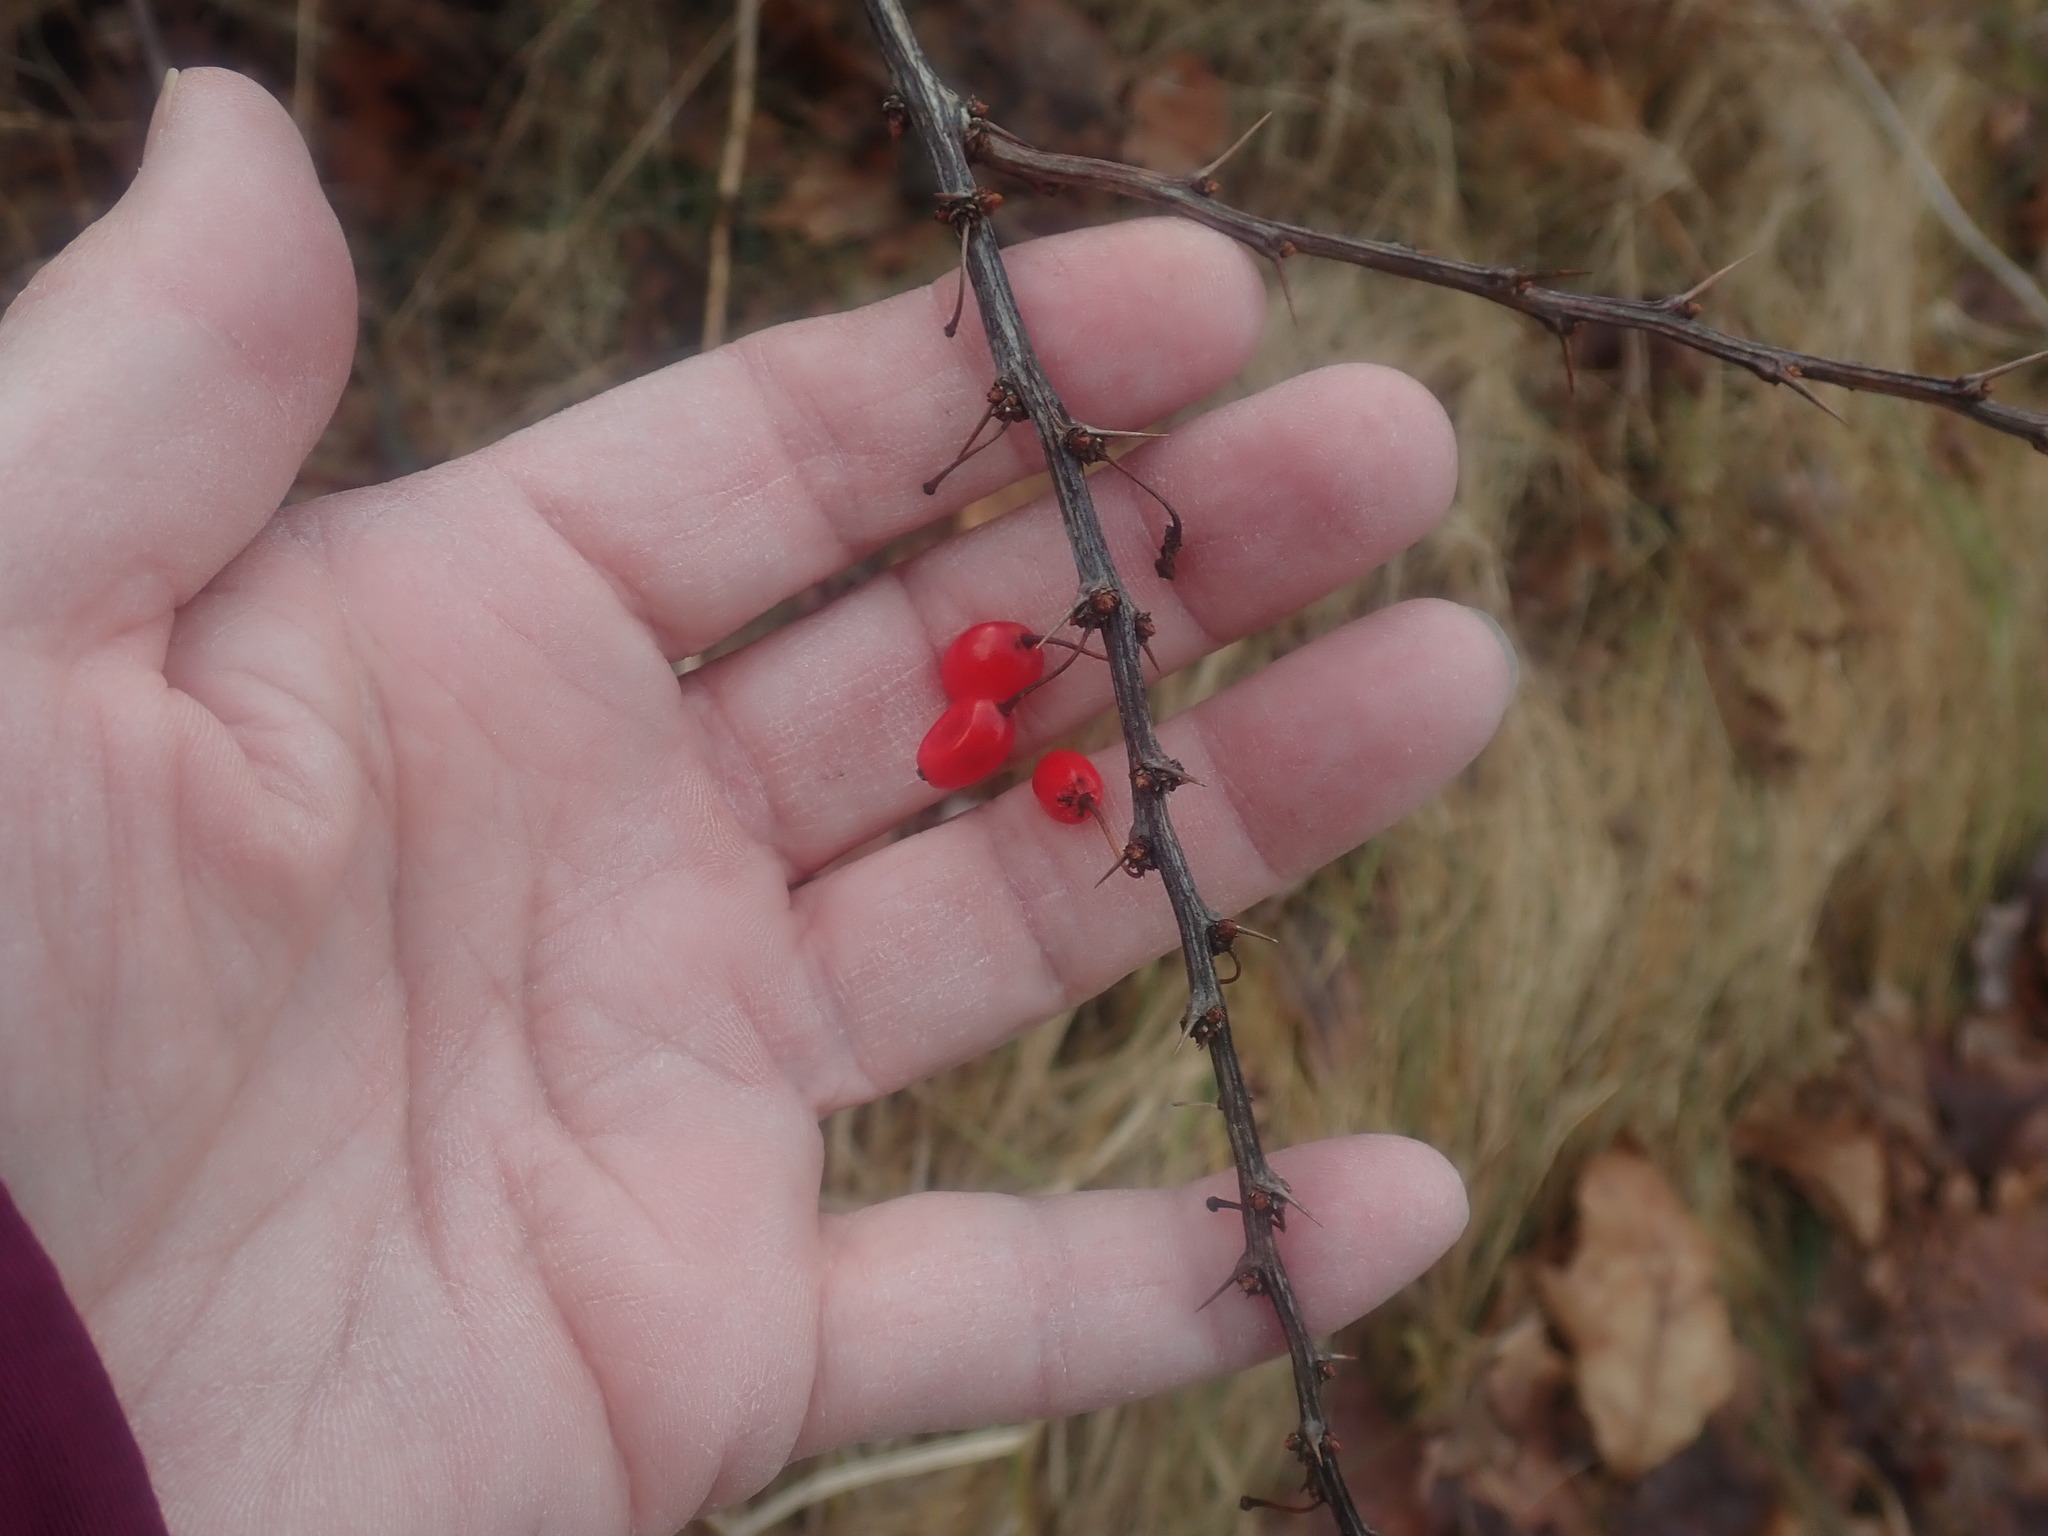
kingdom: Plantae
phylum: Tracheophyta
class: Magnoliopsida
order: Ranunculales
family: Berberidaceae
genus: Berberis
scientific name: Berberis thunbergii
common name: Japanese barberry
